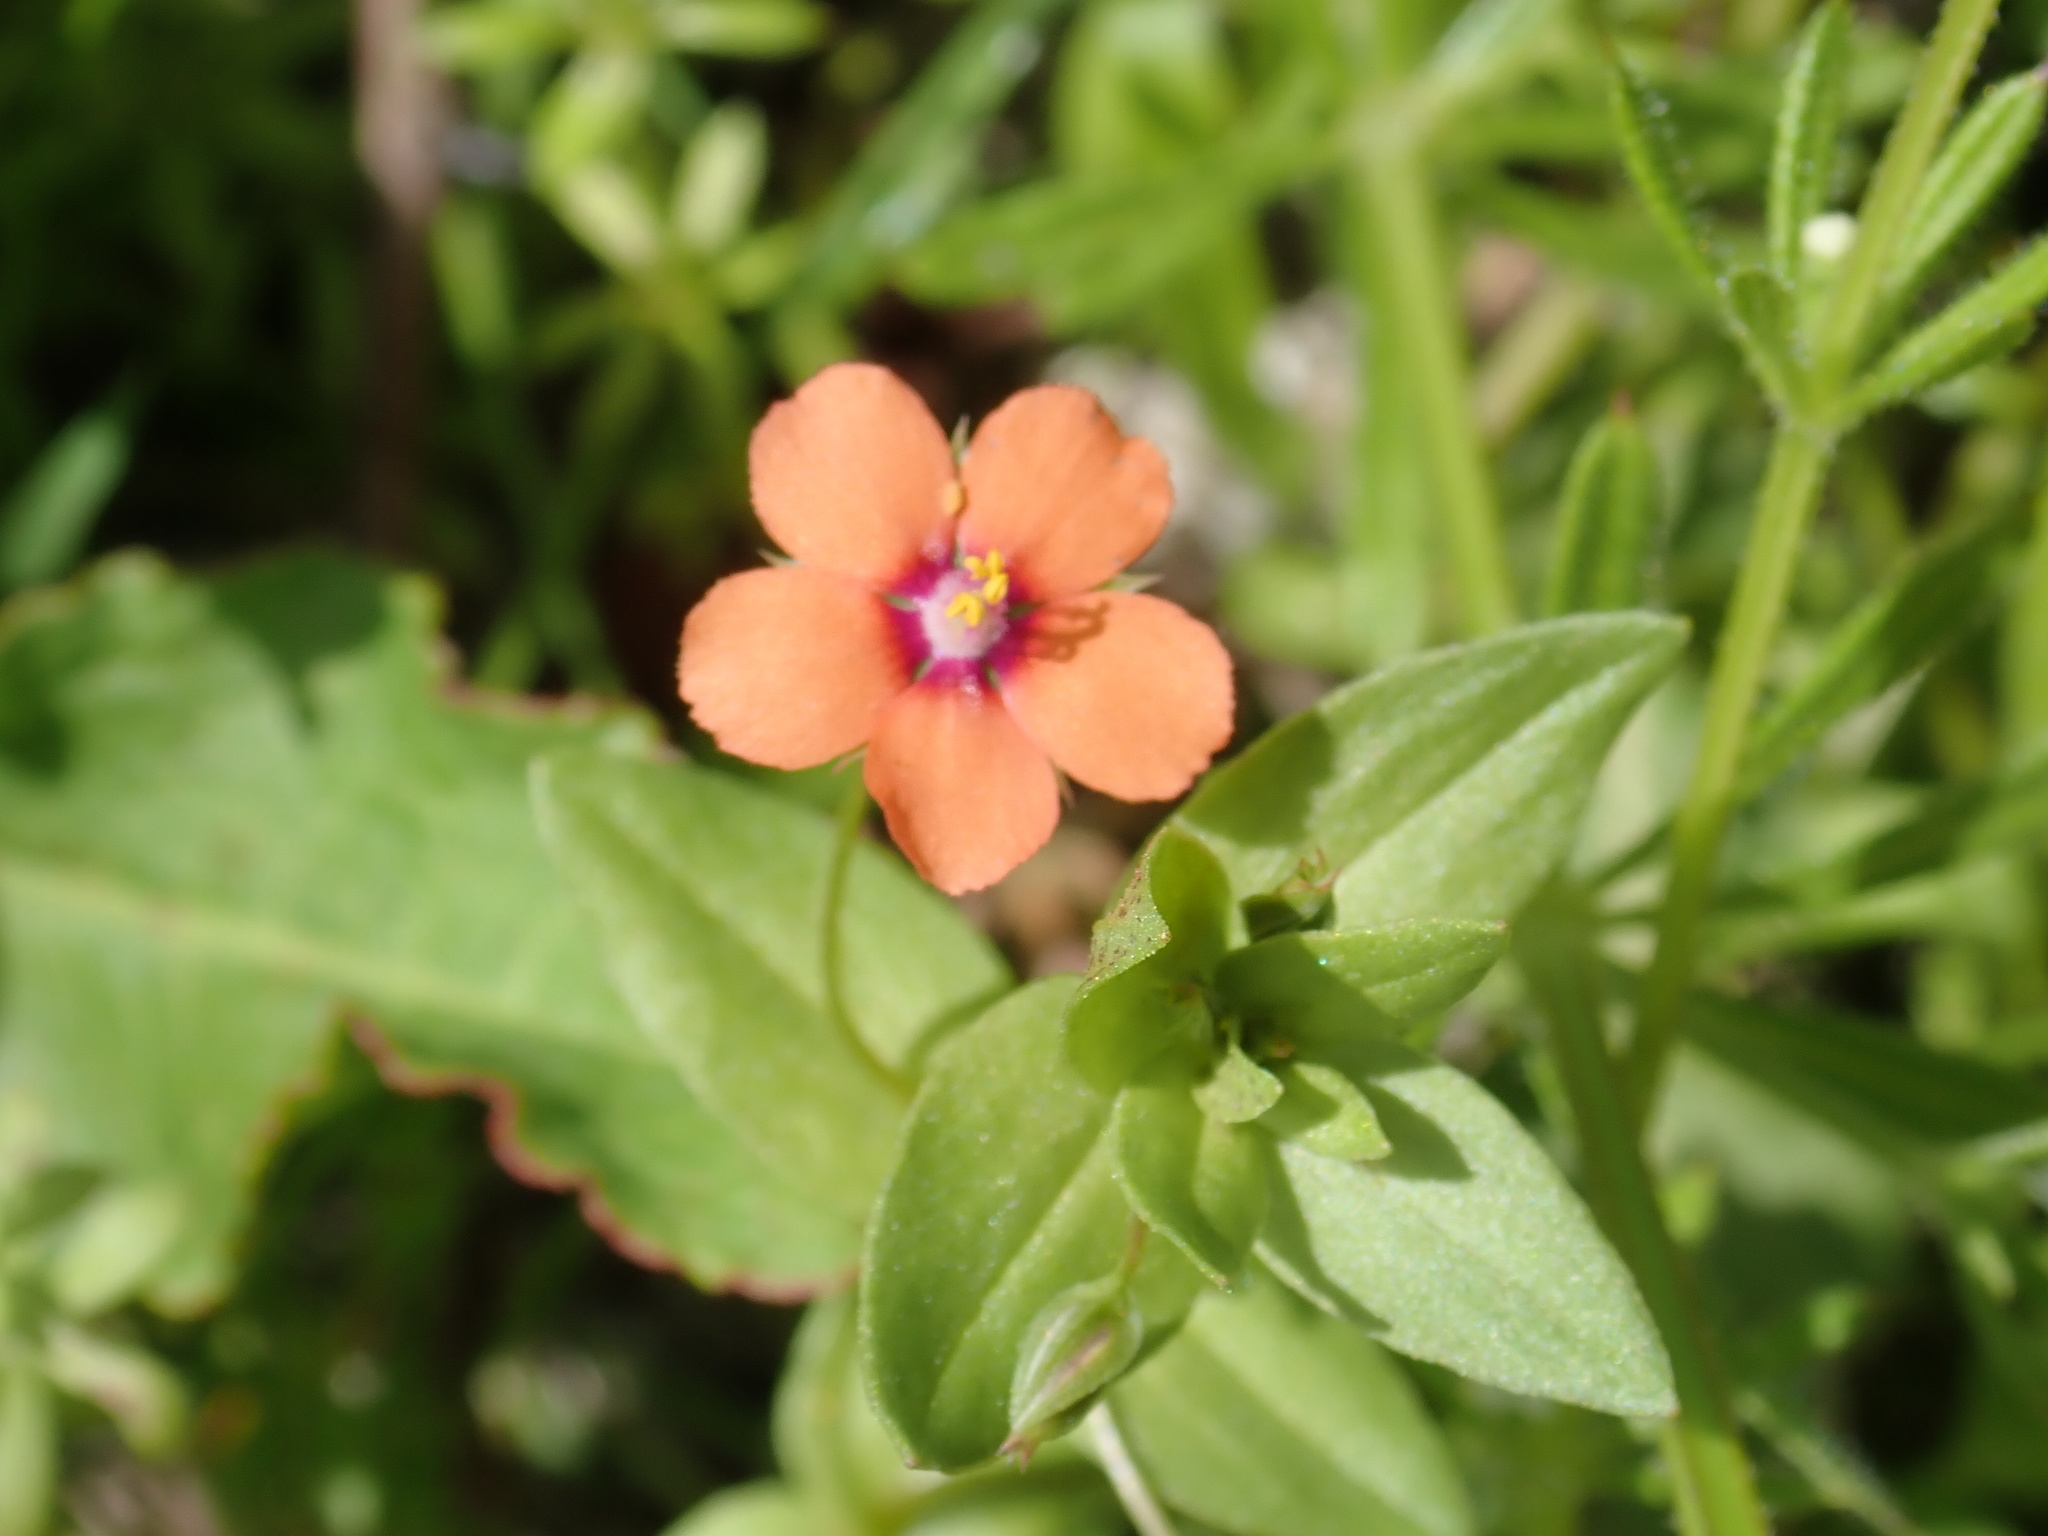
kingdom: Plantae
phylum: Tracheophyta
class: Magnoliopsida
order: Ericales
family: Primulaceae
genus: Lysimachia
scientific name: Lysimachia arvensis
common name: Scarlet pimpernel
